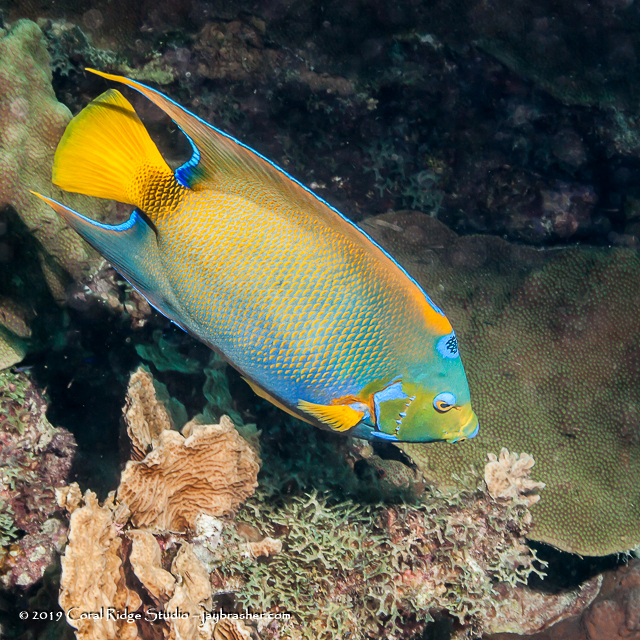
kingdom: Animalia
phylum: Chordata
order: Perciformes
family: Pomacanthidae
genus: Holacanthus
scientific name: Holacanthus ciliaris
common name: Queen angelfish
